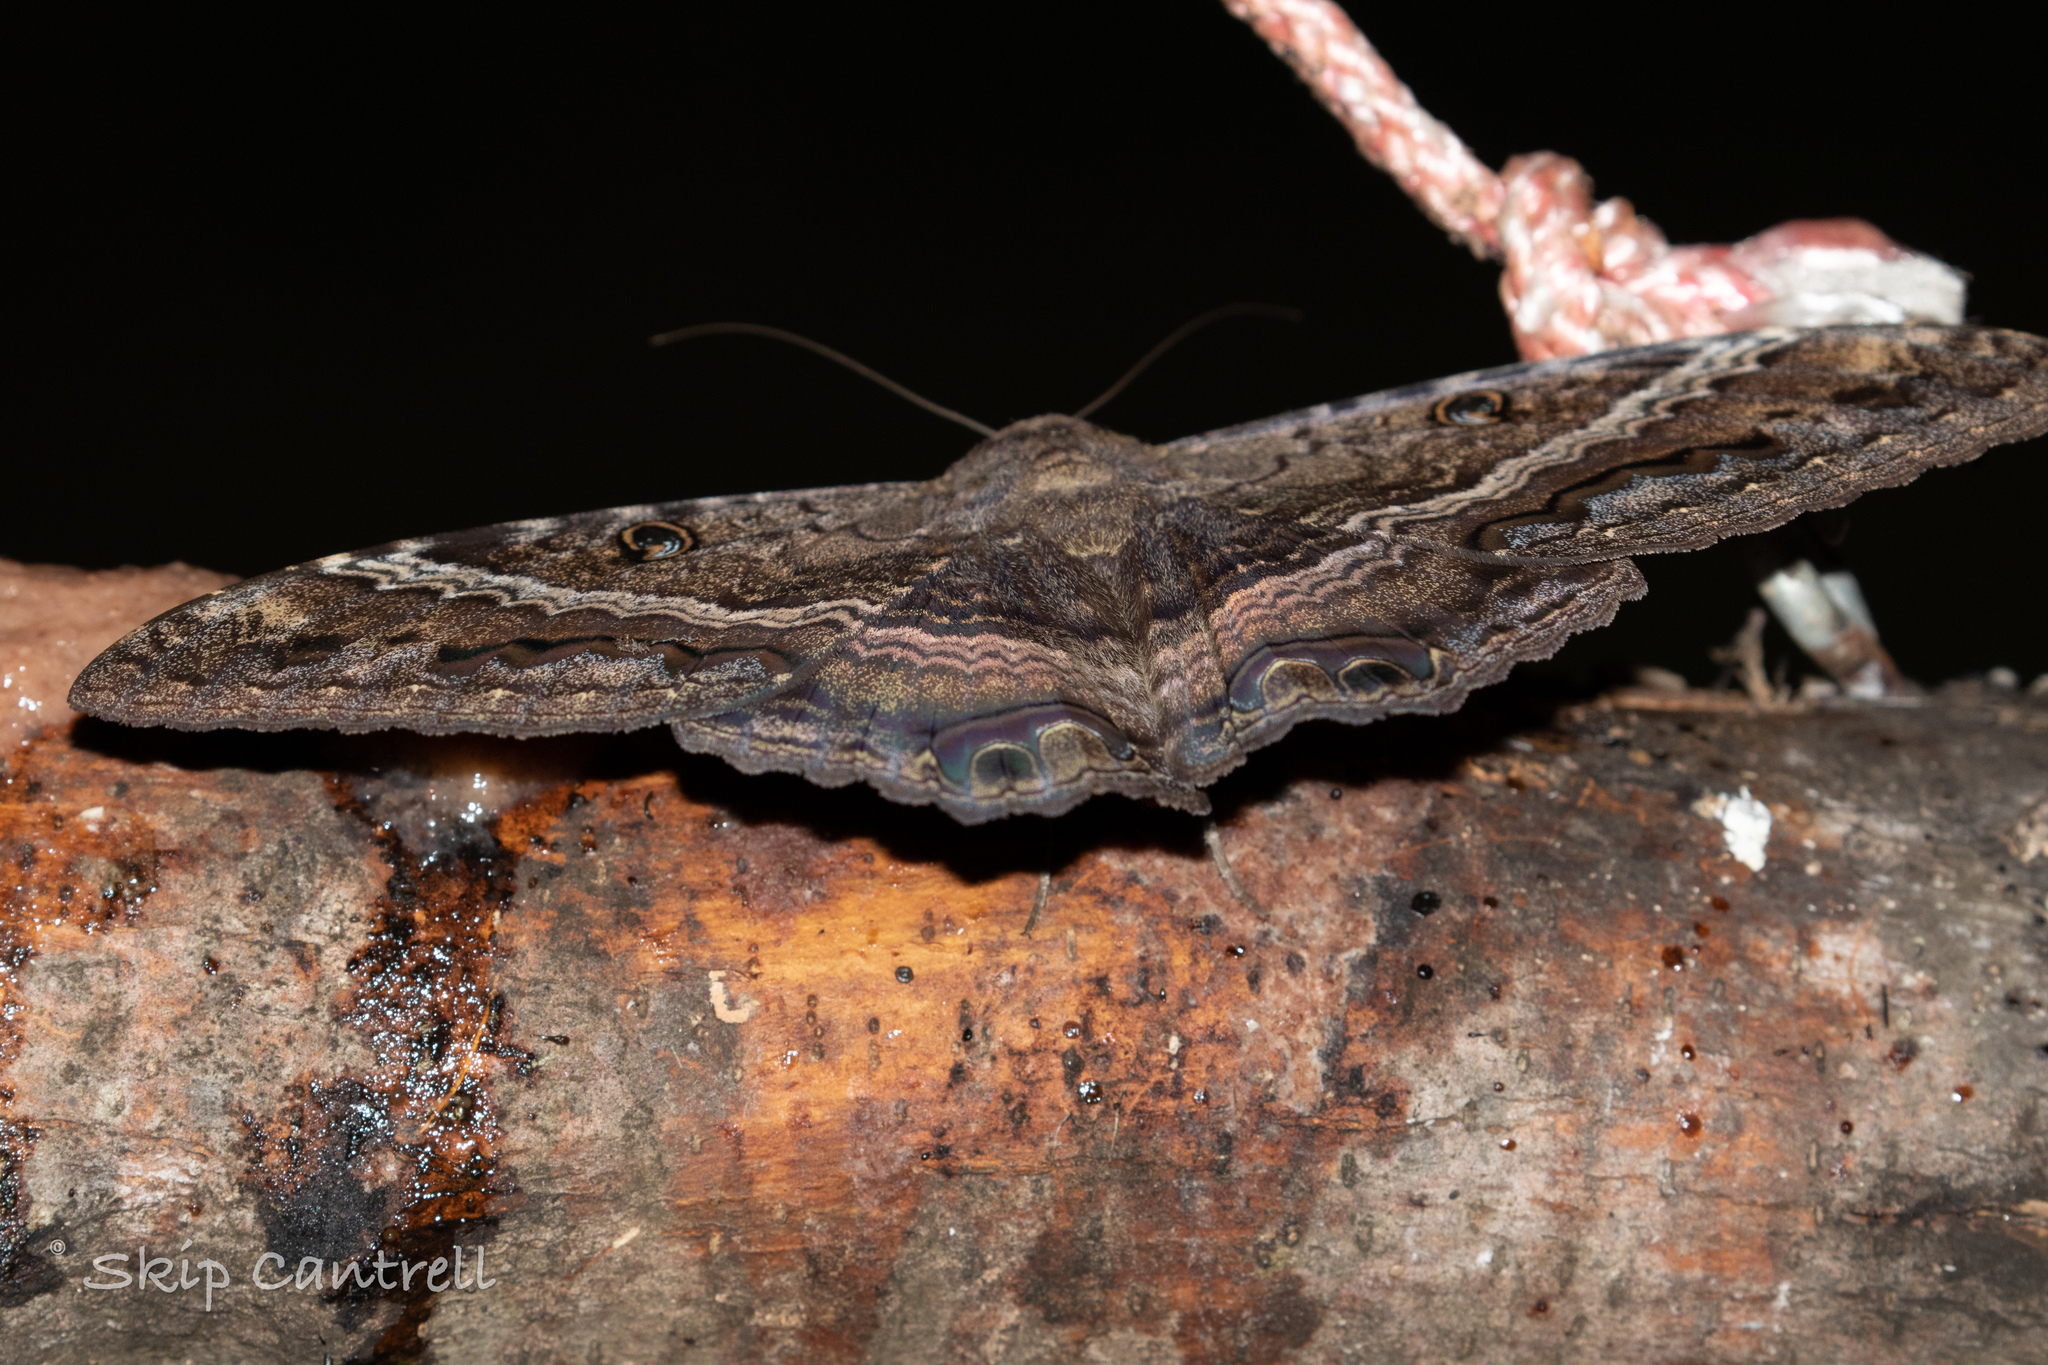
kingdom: Animalia
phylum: Arthropoda
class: Insecta
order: Lepidoptera
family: Erebidae
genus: Ascalapha
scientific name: Ascalapha odorata
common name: Black witch
